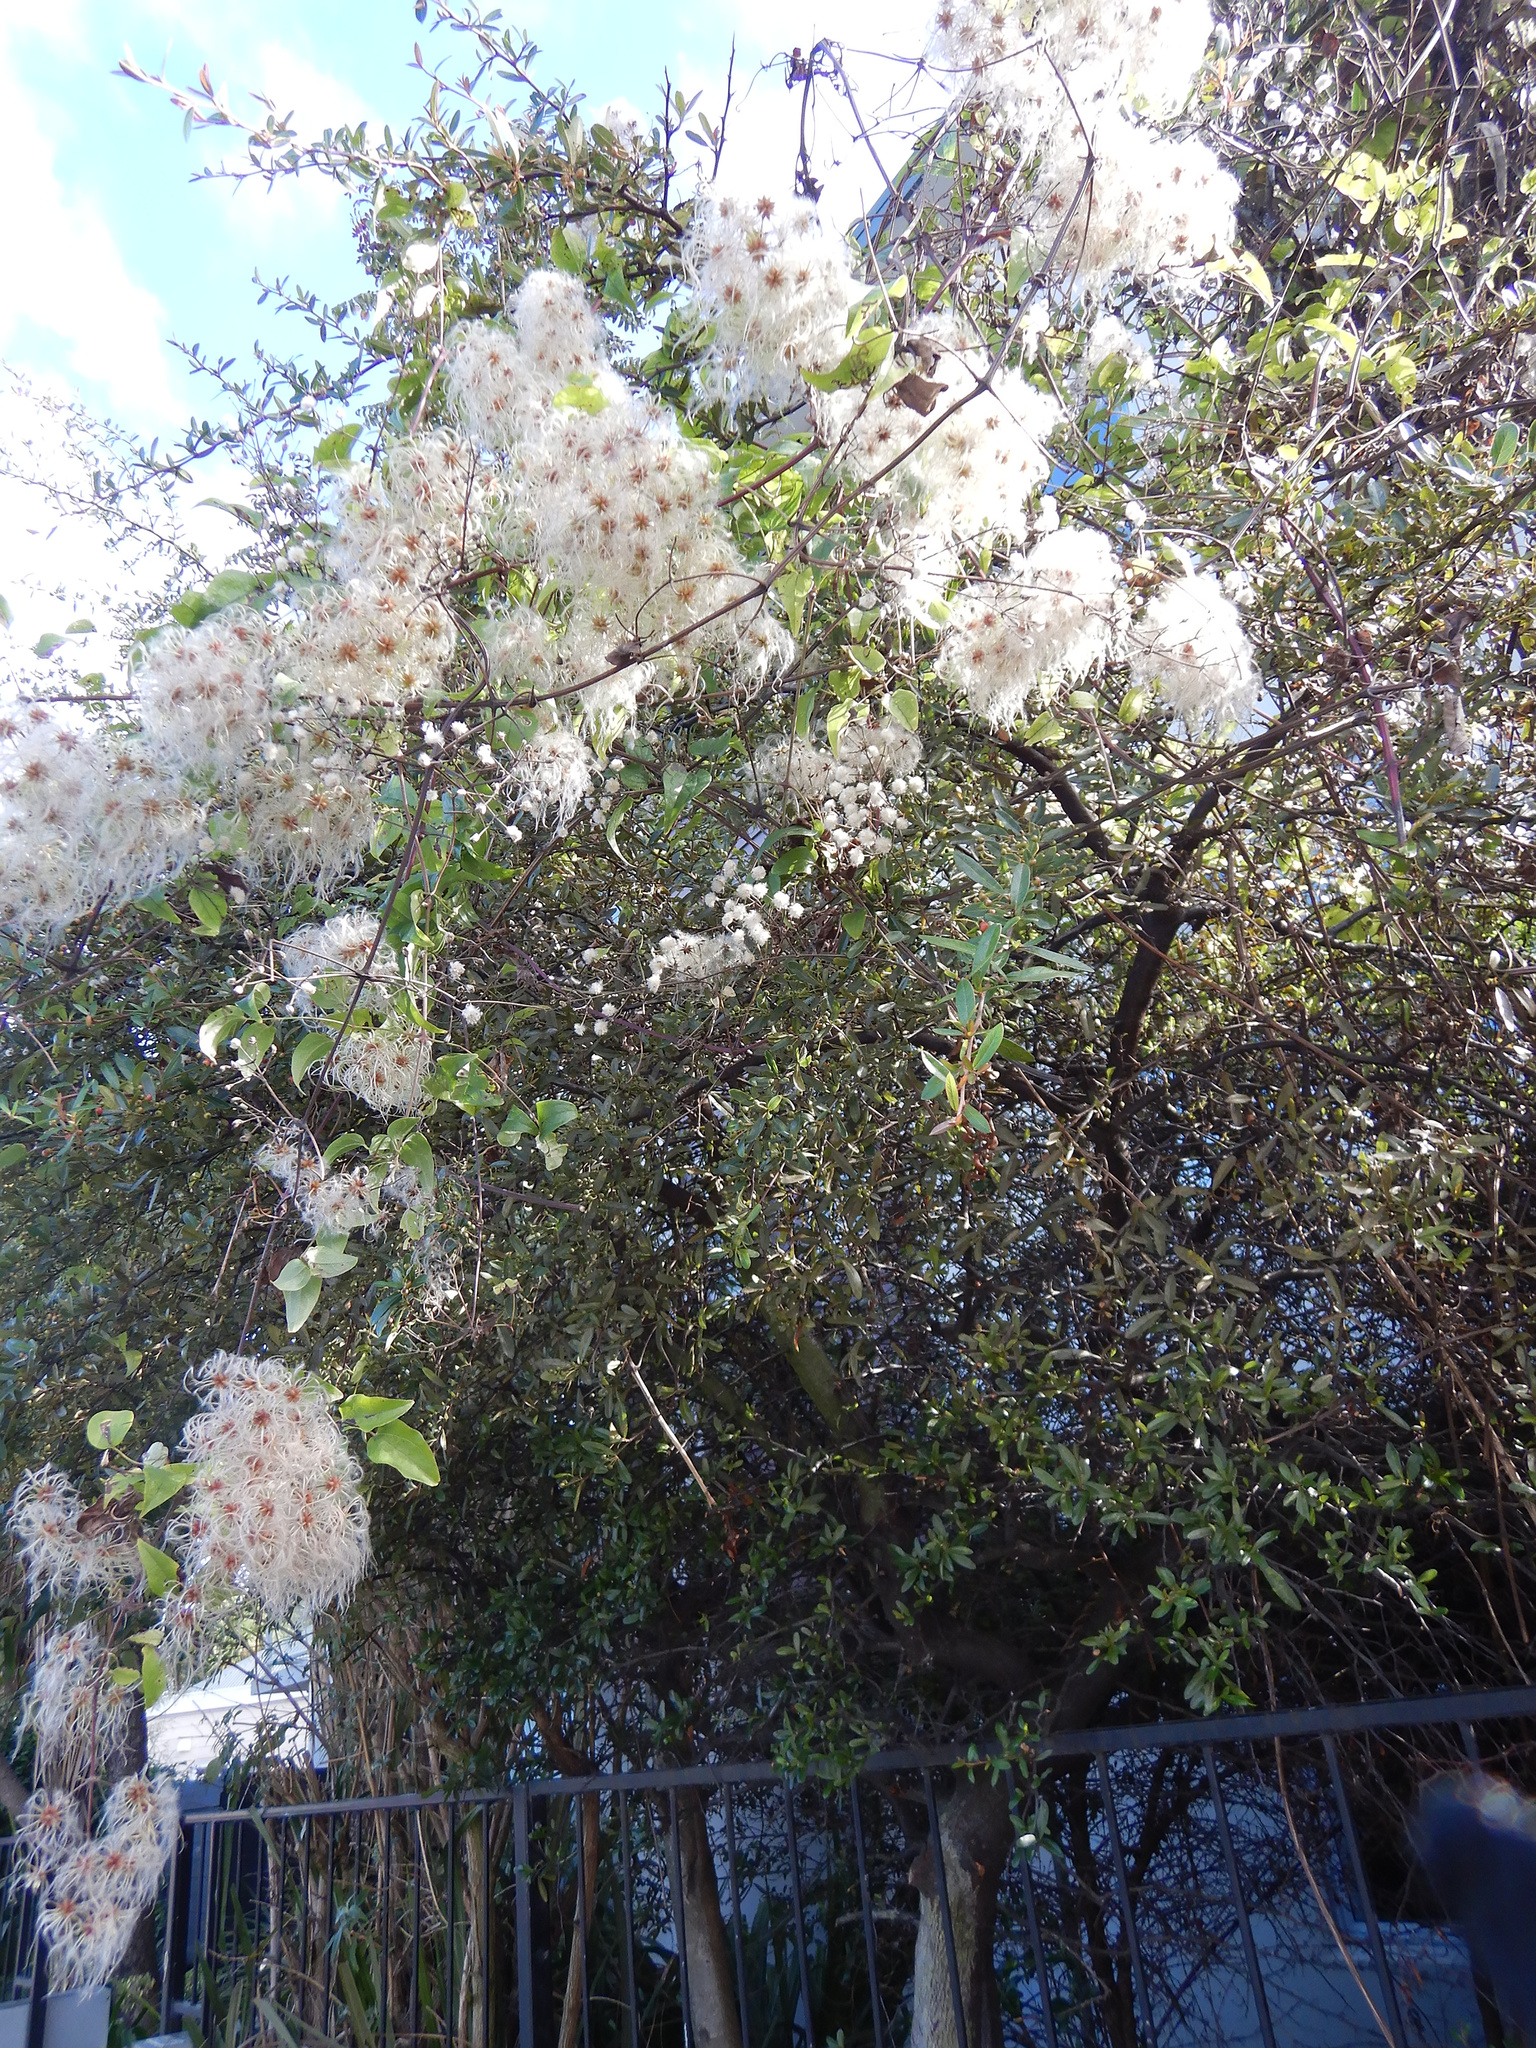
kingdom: Plantae
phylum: Tracheophyta
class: Magnoliopsida
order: Ranunculales
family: Ranunculaceae
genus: Clematis
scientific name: Clematis vitalba
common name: Evergreen clematis
